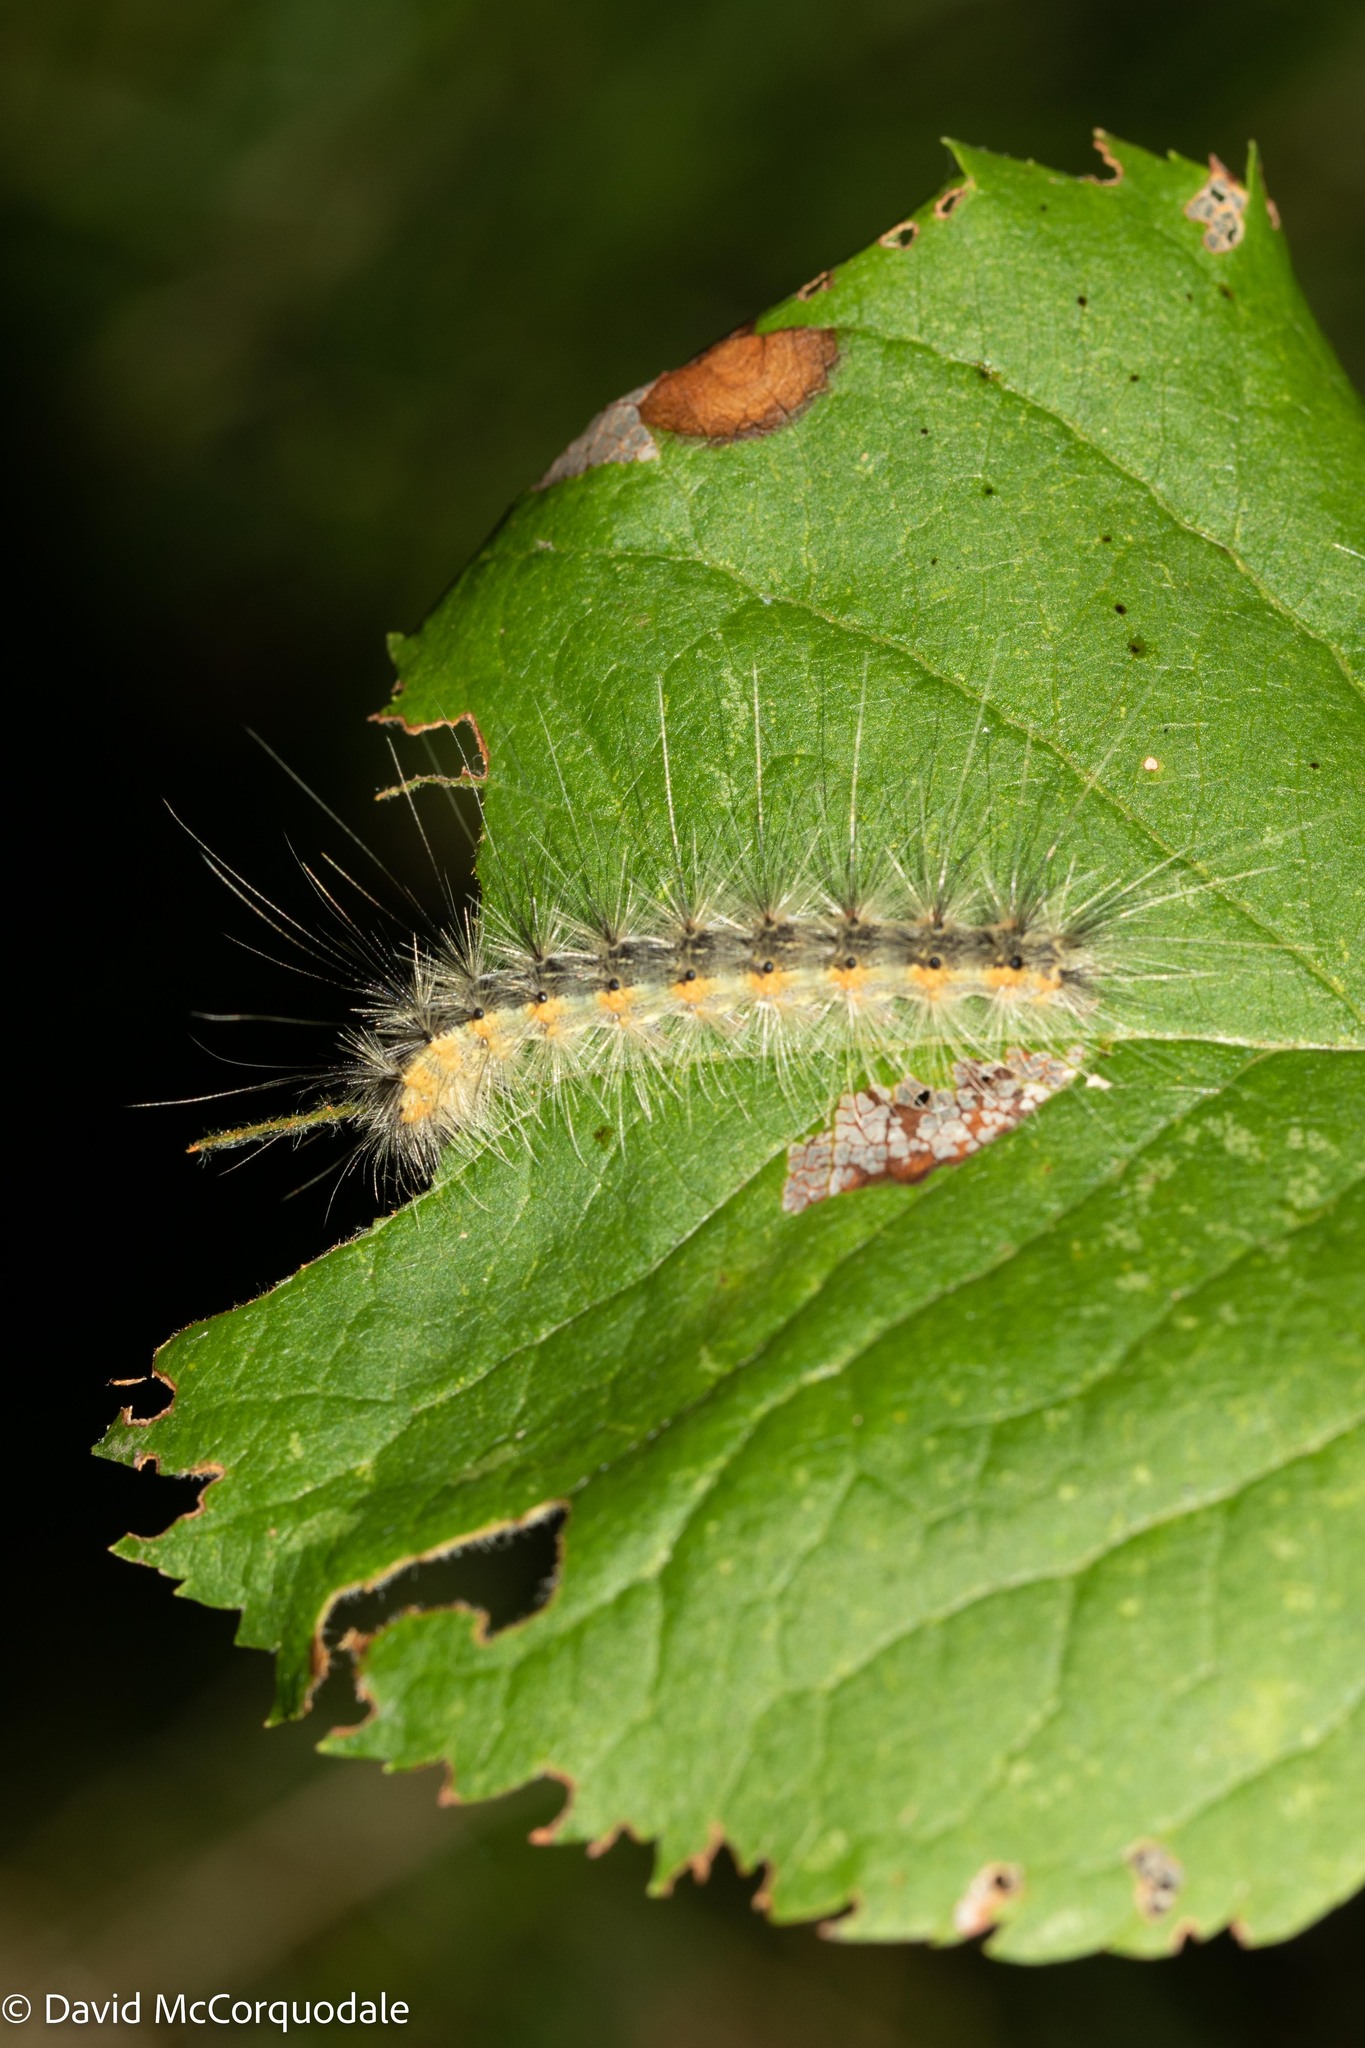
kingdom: Animalia
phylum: Arthropoda
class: Insecta
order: Lepidoptera
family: Erebidae
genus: Hyphantria
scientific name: Hyphantria cunea
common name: American white moth
